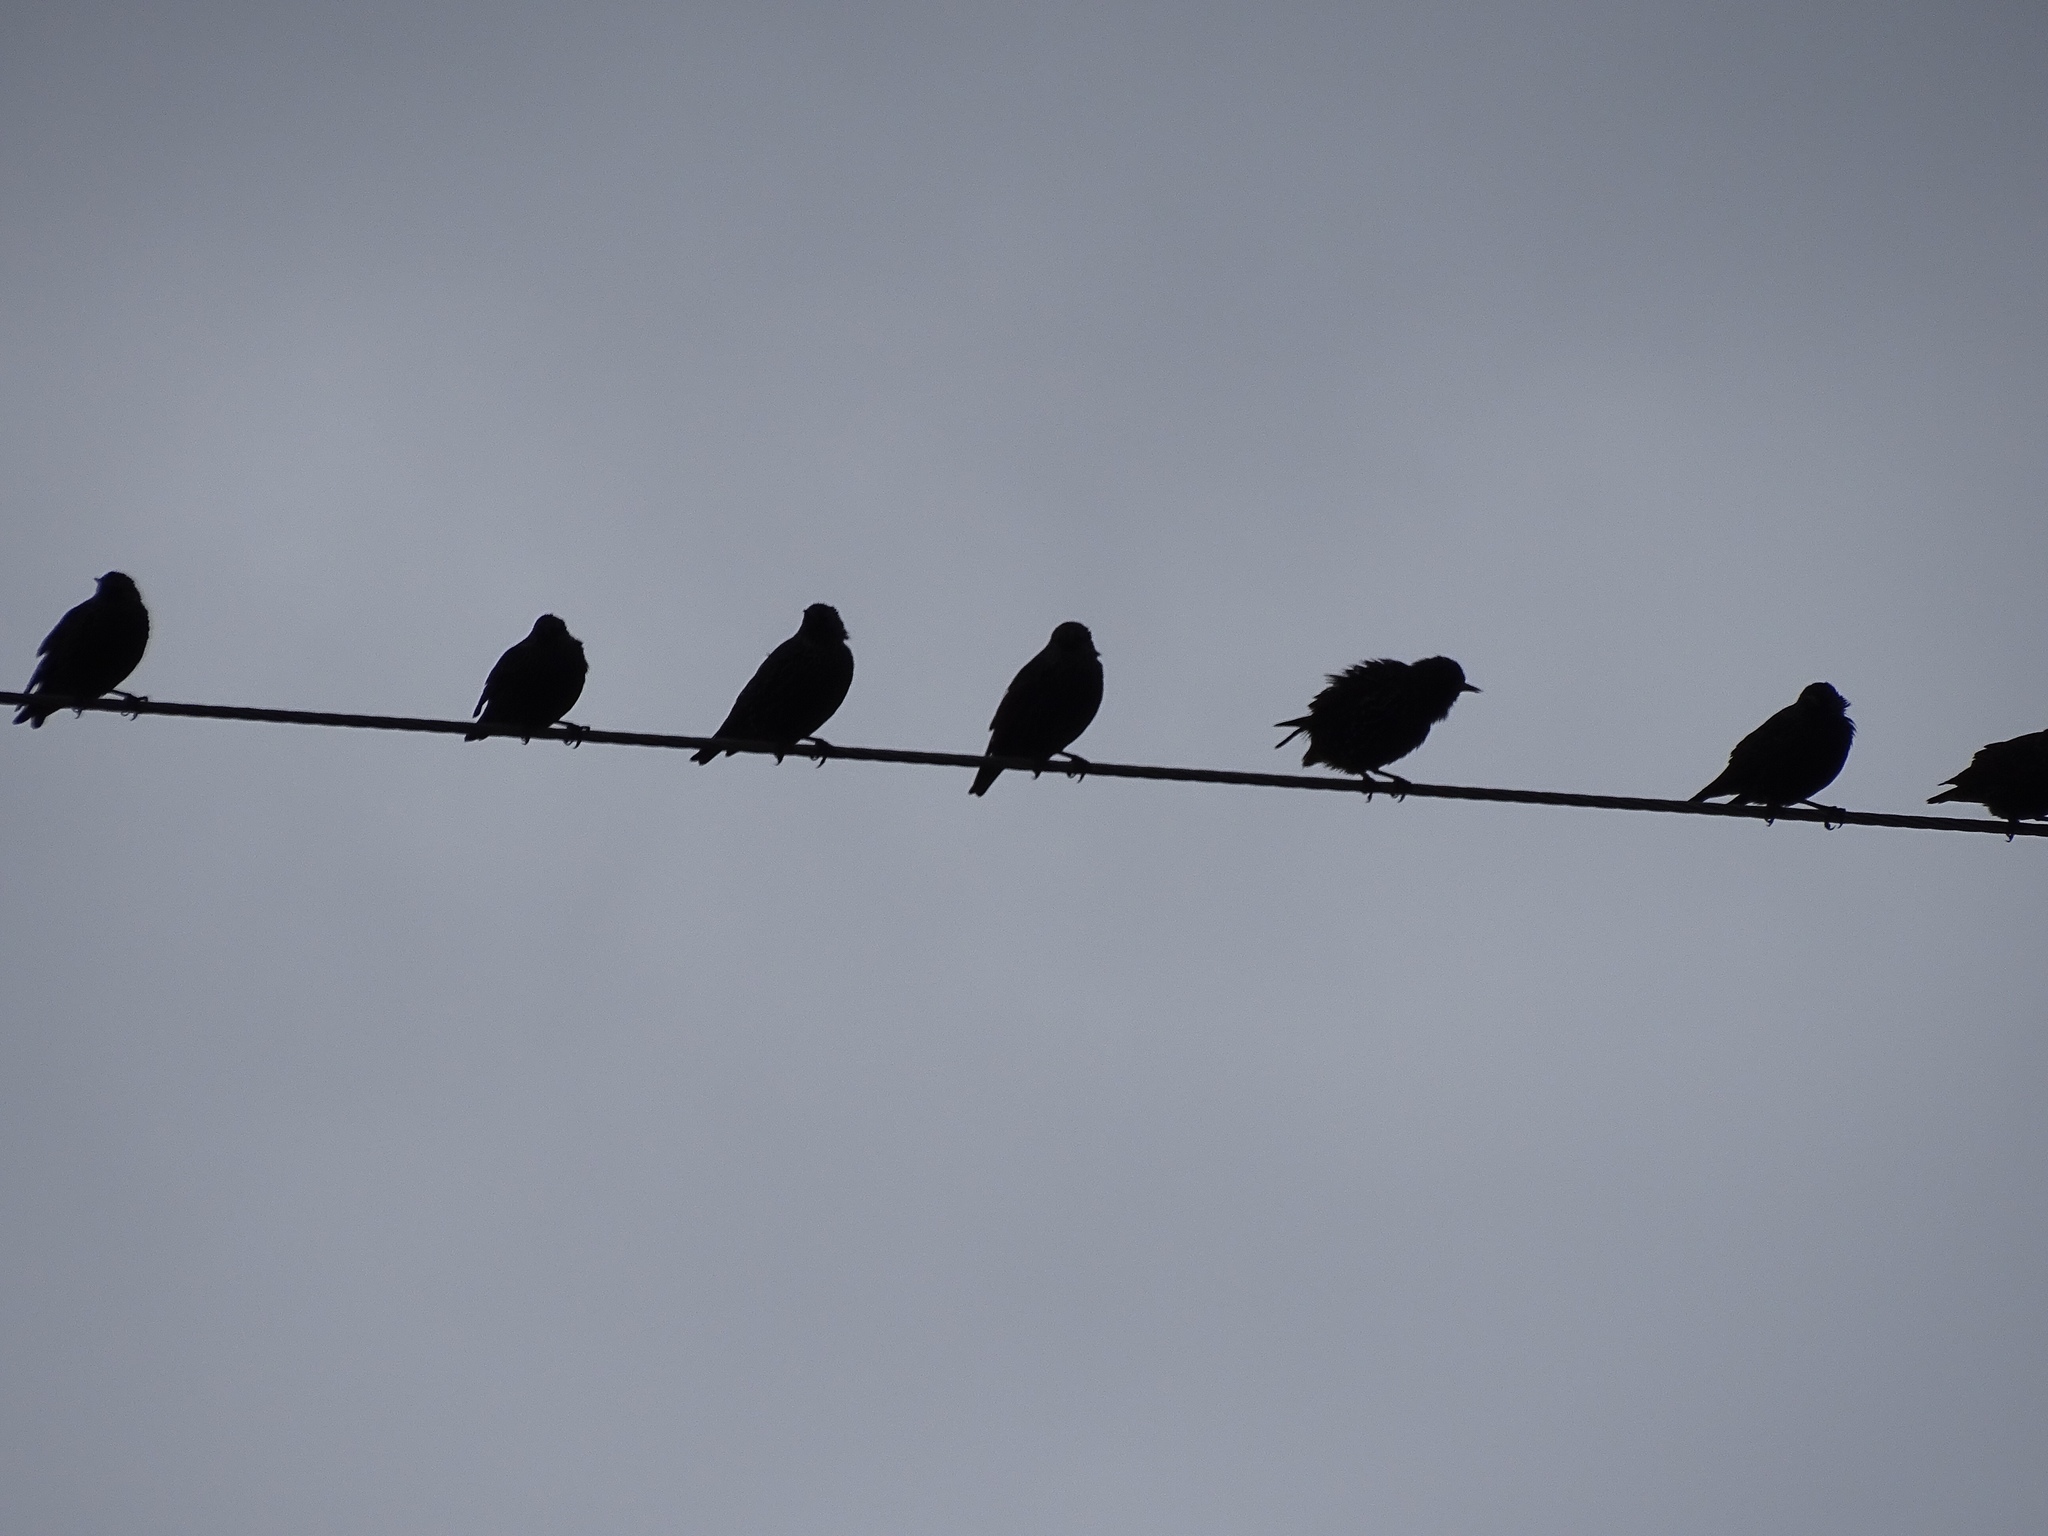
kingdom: Animalia
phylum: Chordata
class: Aves
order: Passeriformes
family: Sturnidae
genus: Sturnus
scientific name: Sturnus vulgaris
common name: Common starling
